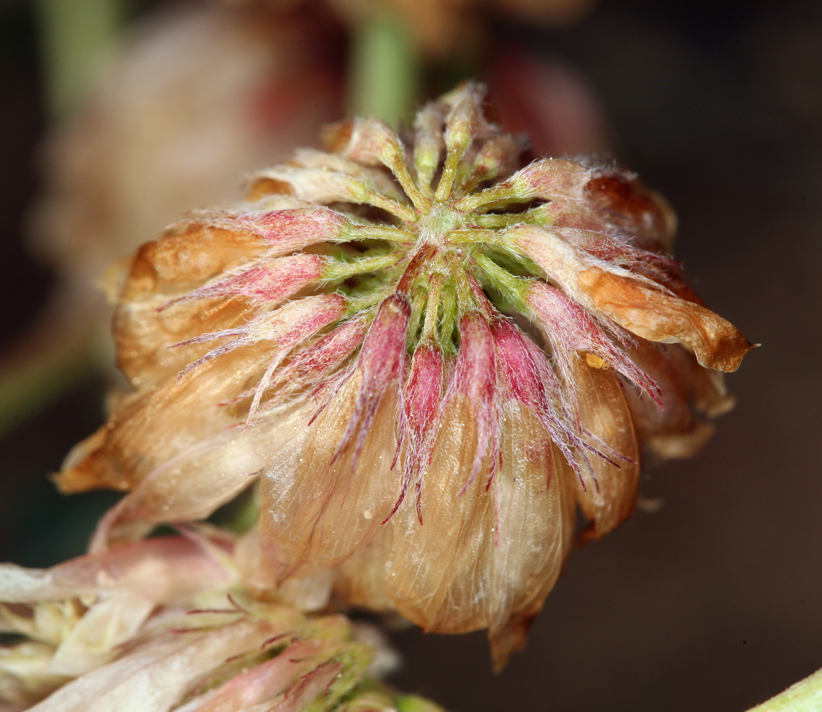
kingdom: Plantae
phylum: Tracheophyta
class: Magnoliopsida
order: Fabales
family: Fabaceae
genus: Trifolium
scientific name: Trifolium lemmonii
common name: Lemmon's clover
